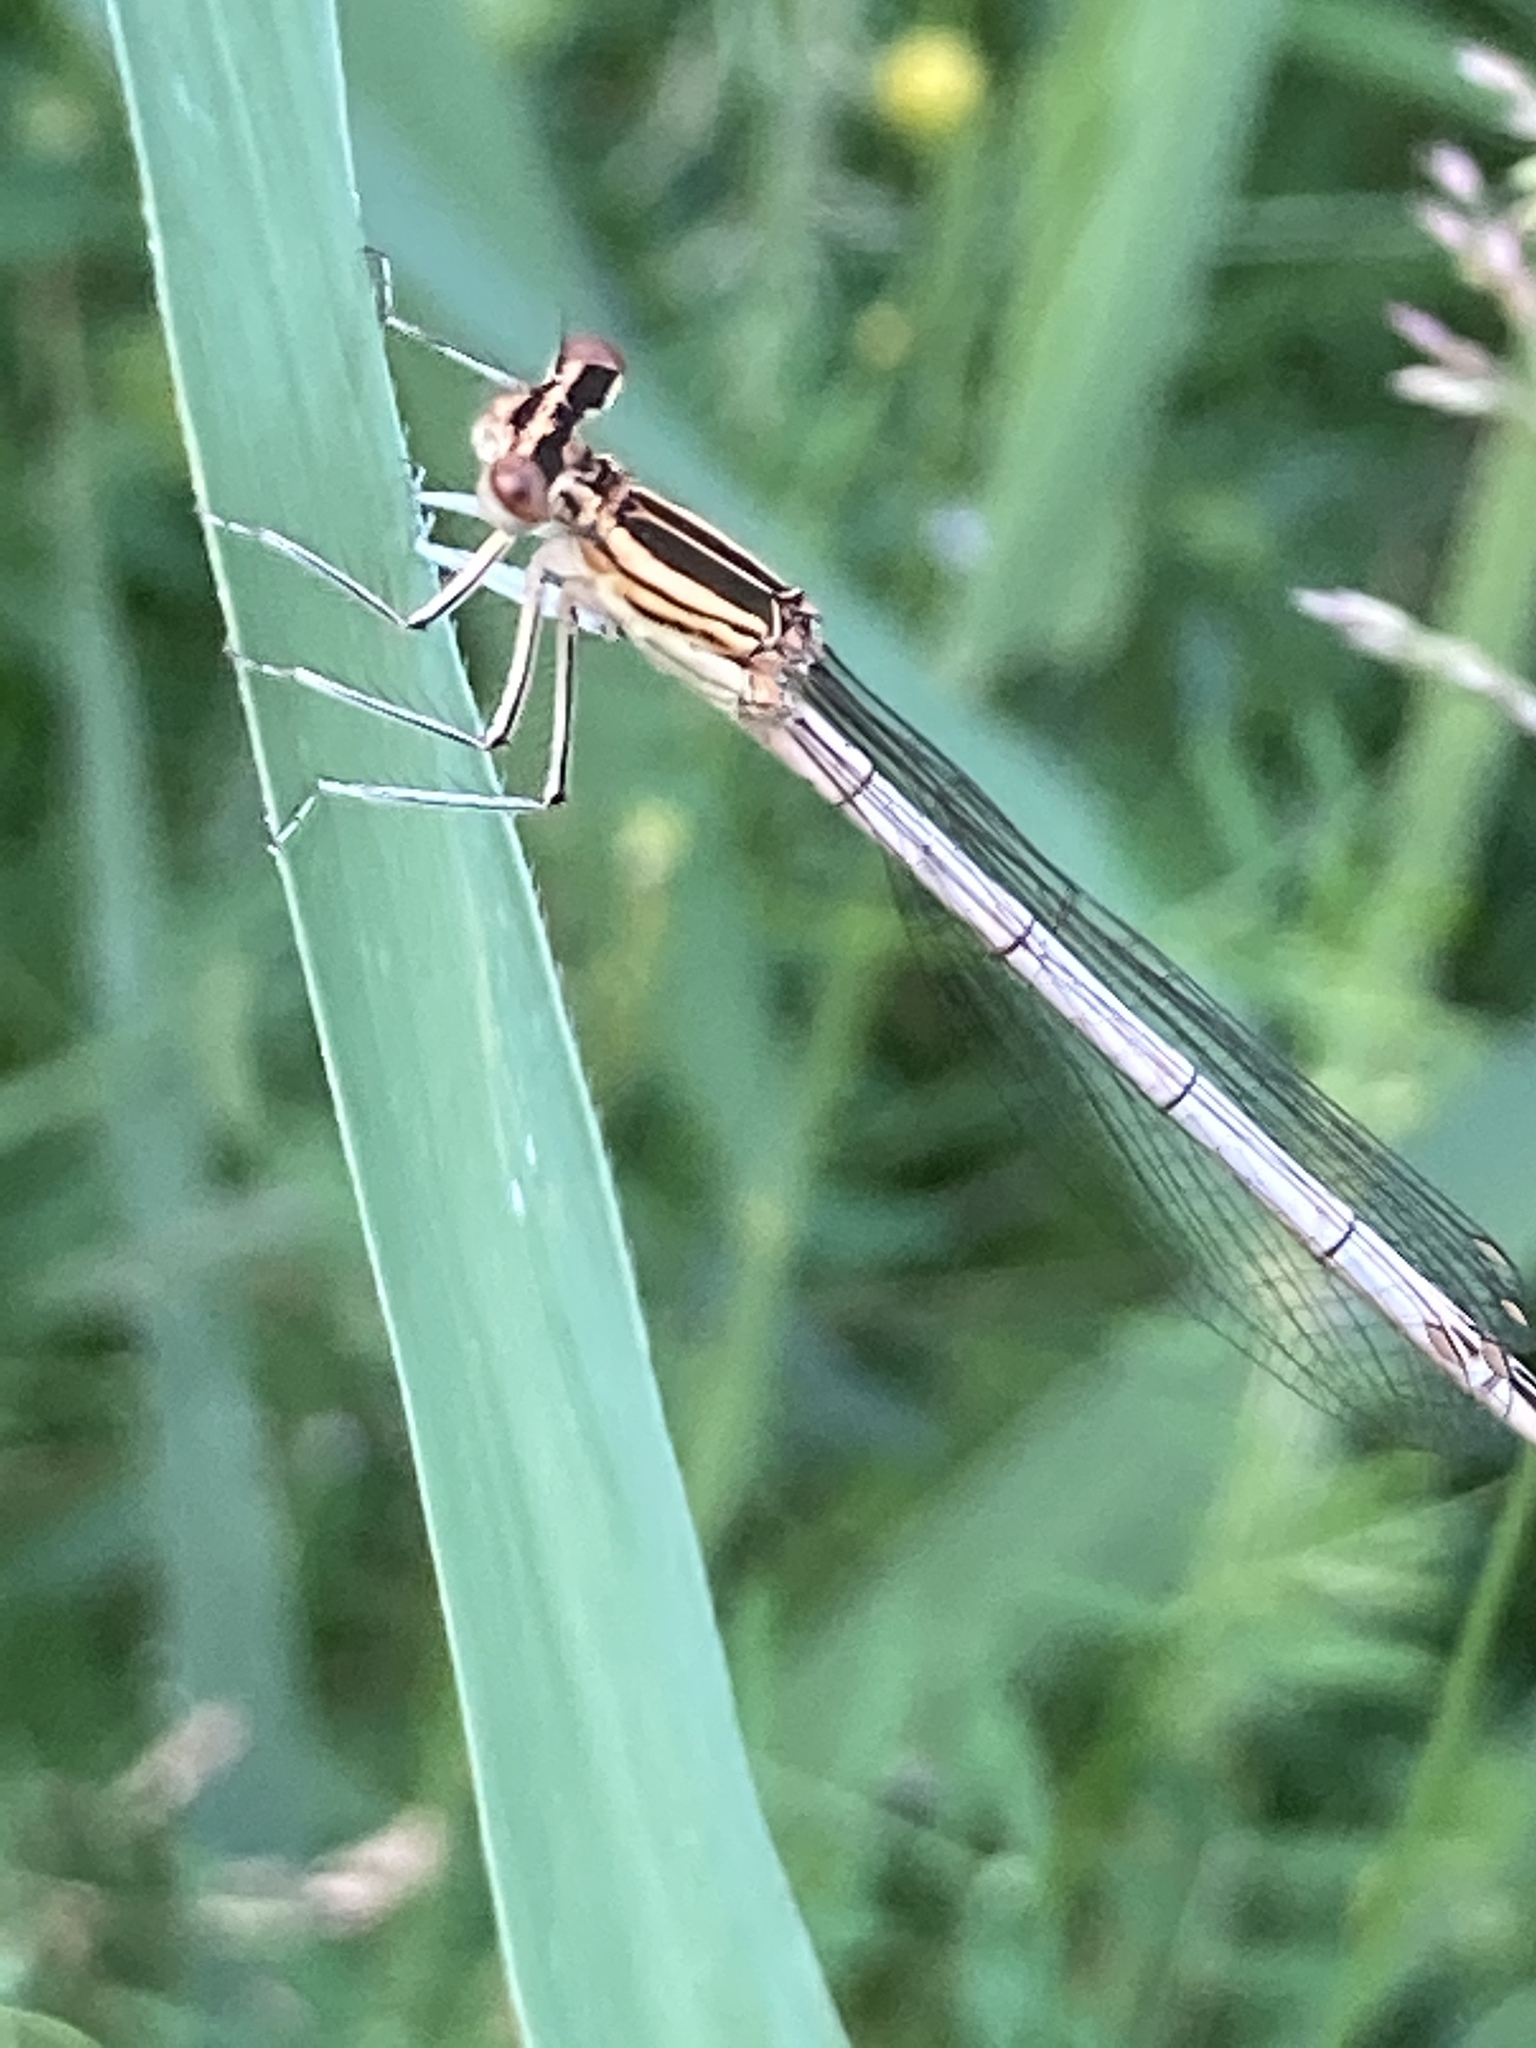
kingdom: Animalia
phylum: Arthropoda
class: Insecta
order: Odonata
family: Platycnemididae
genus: Platycnemis
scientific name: Platycnemis pennipes
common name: White-legged damselfly
